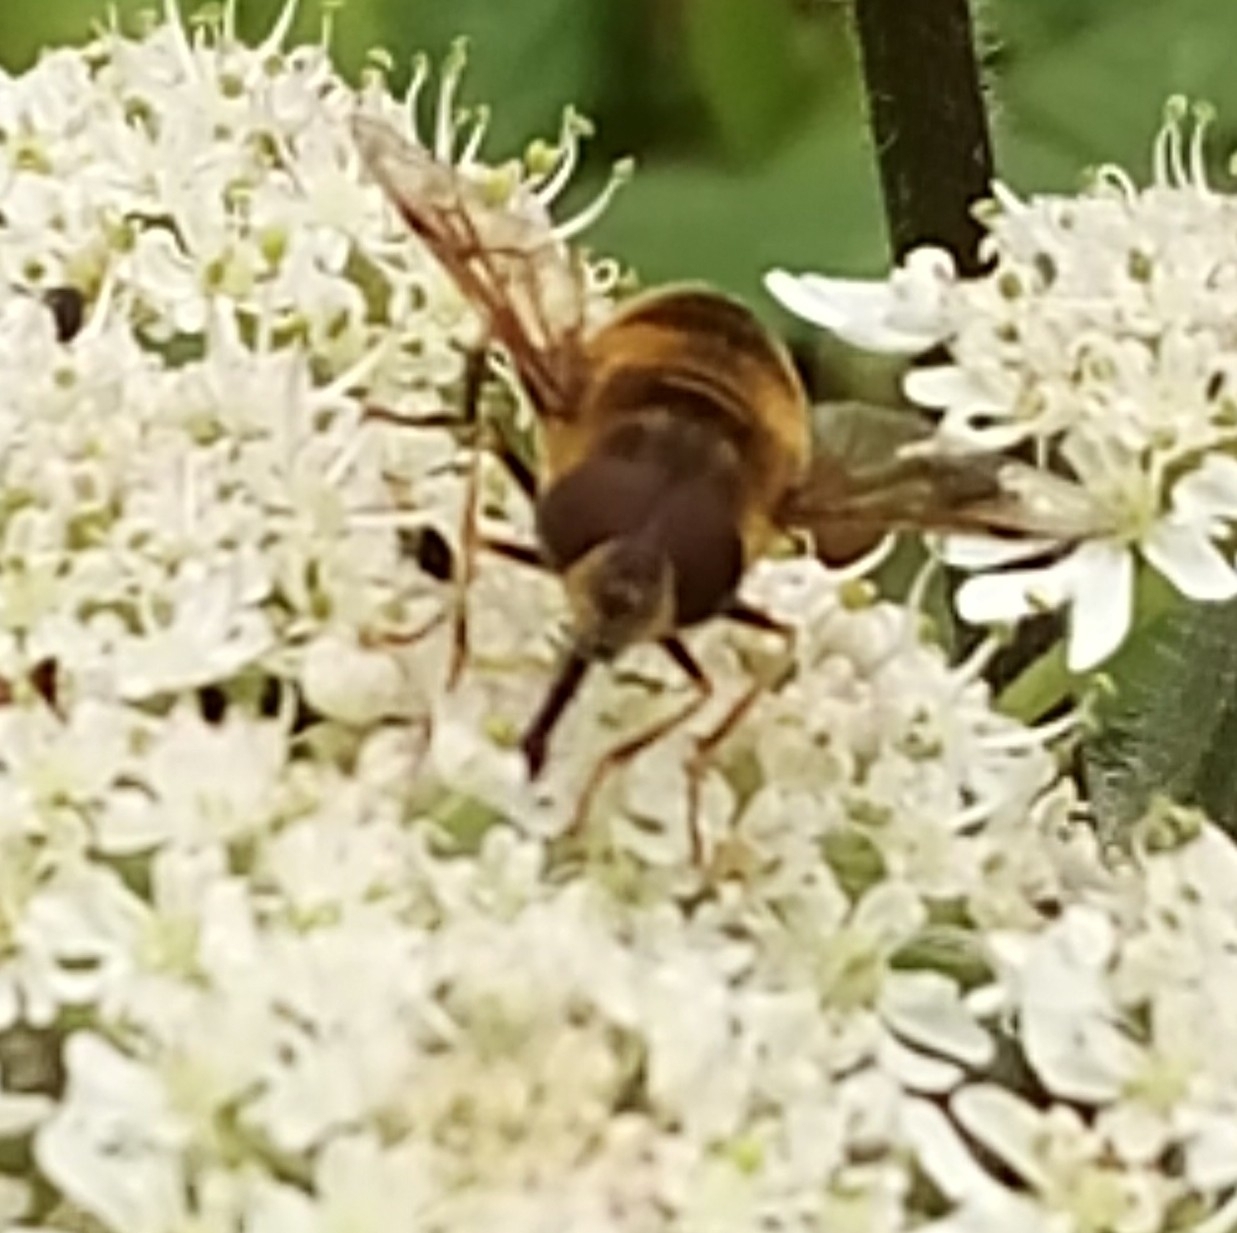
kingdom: Animalia
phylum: Arthropoda
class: Insecta
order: Diptera
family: Syrphidae
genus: Eristalis
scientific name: Eristalis pertinax
